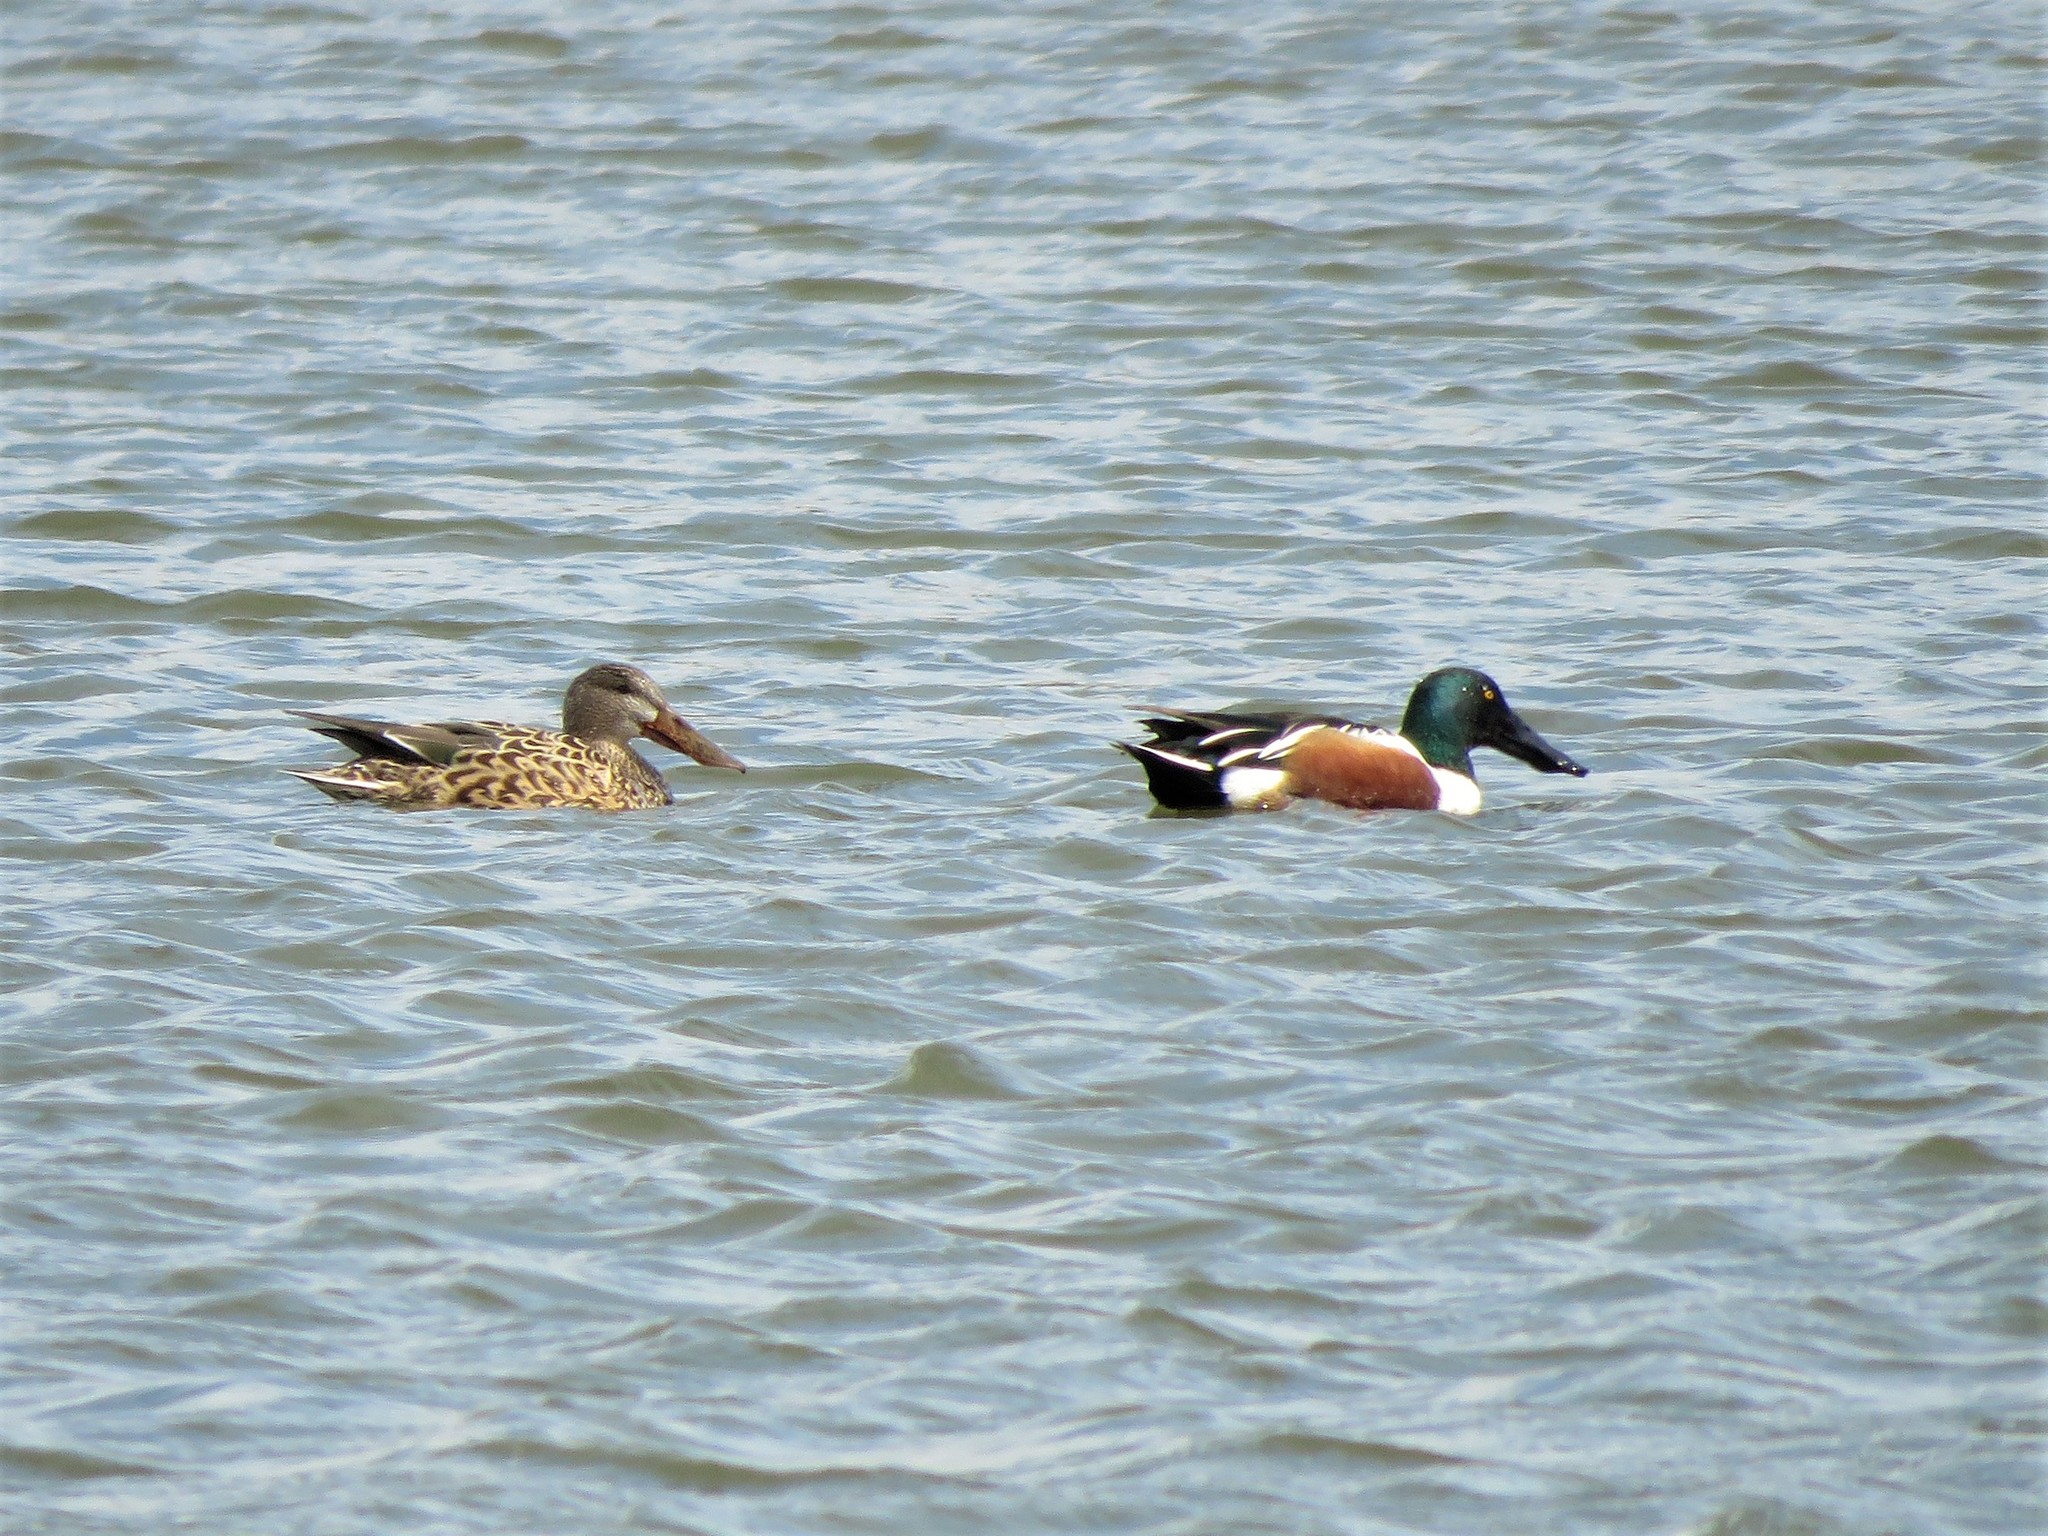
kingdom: Animalia
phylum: Chordata
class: Aves
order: Anseriformes
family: Anatidae
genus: Spatula
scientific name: Spatula clypeata
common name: Northern shoveler
